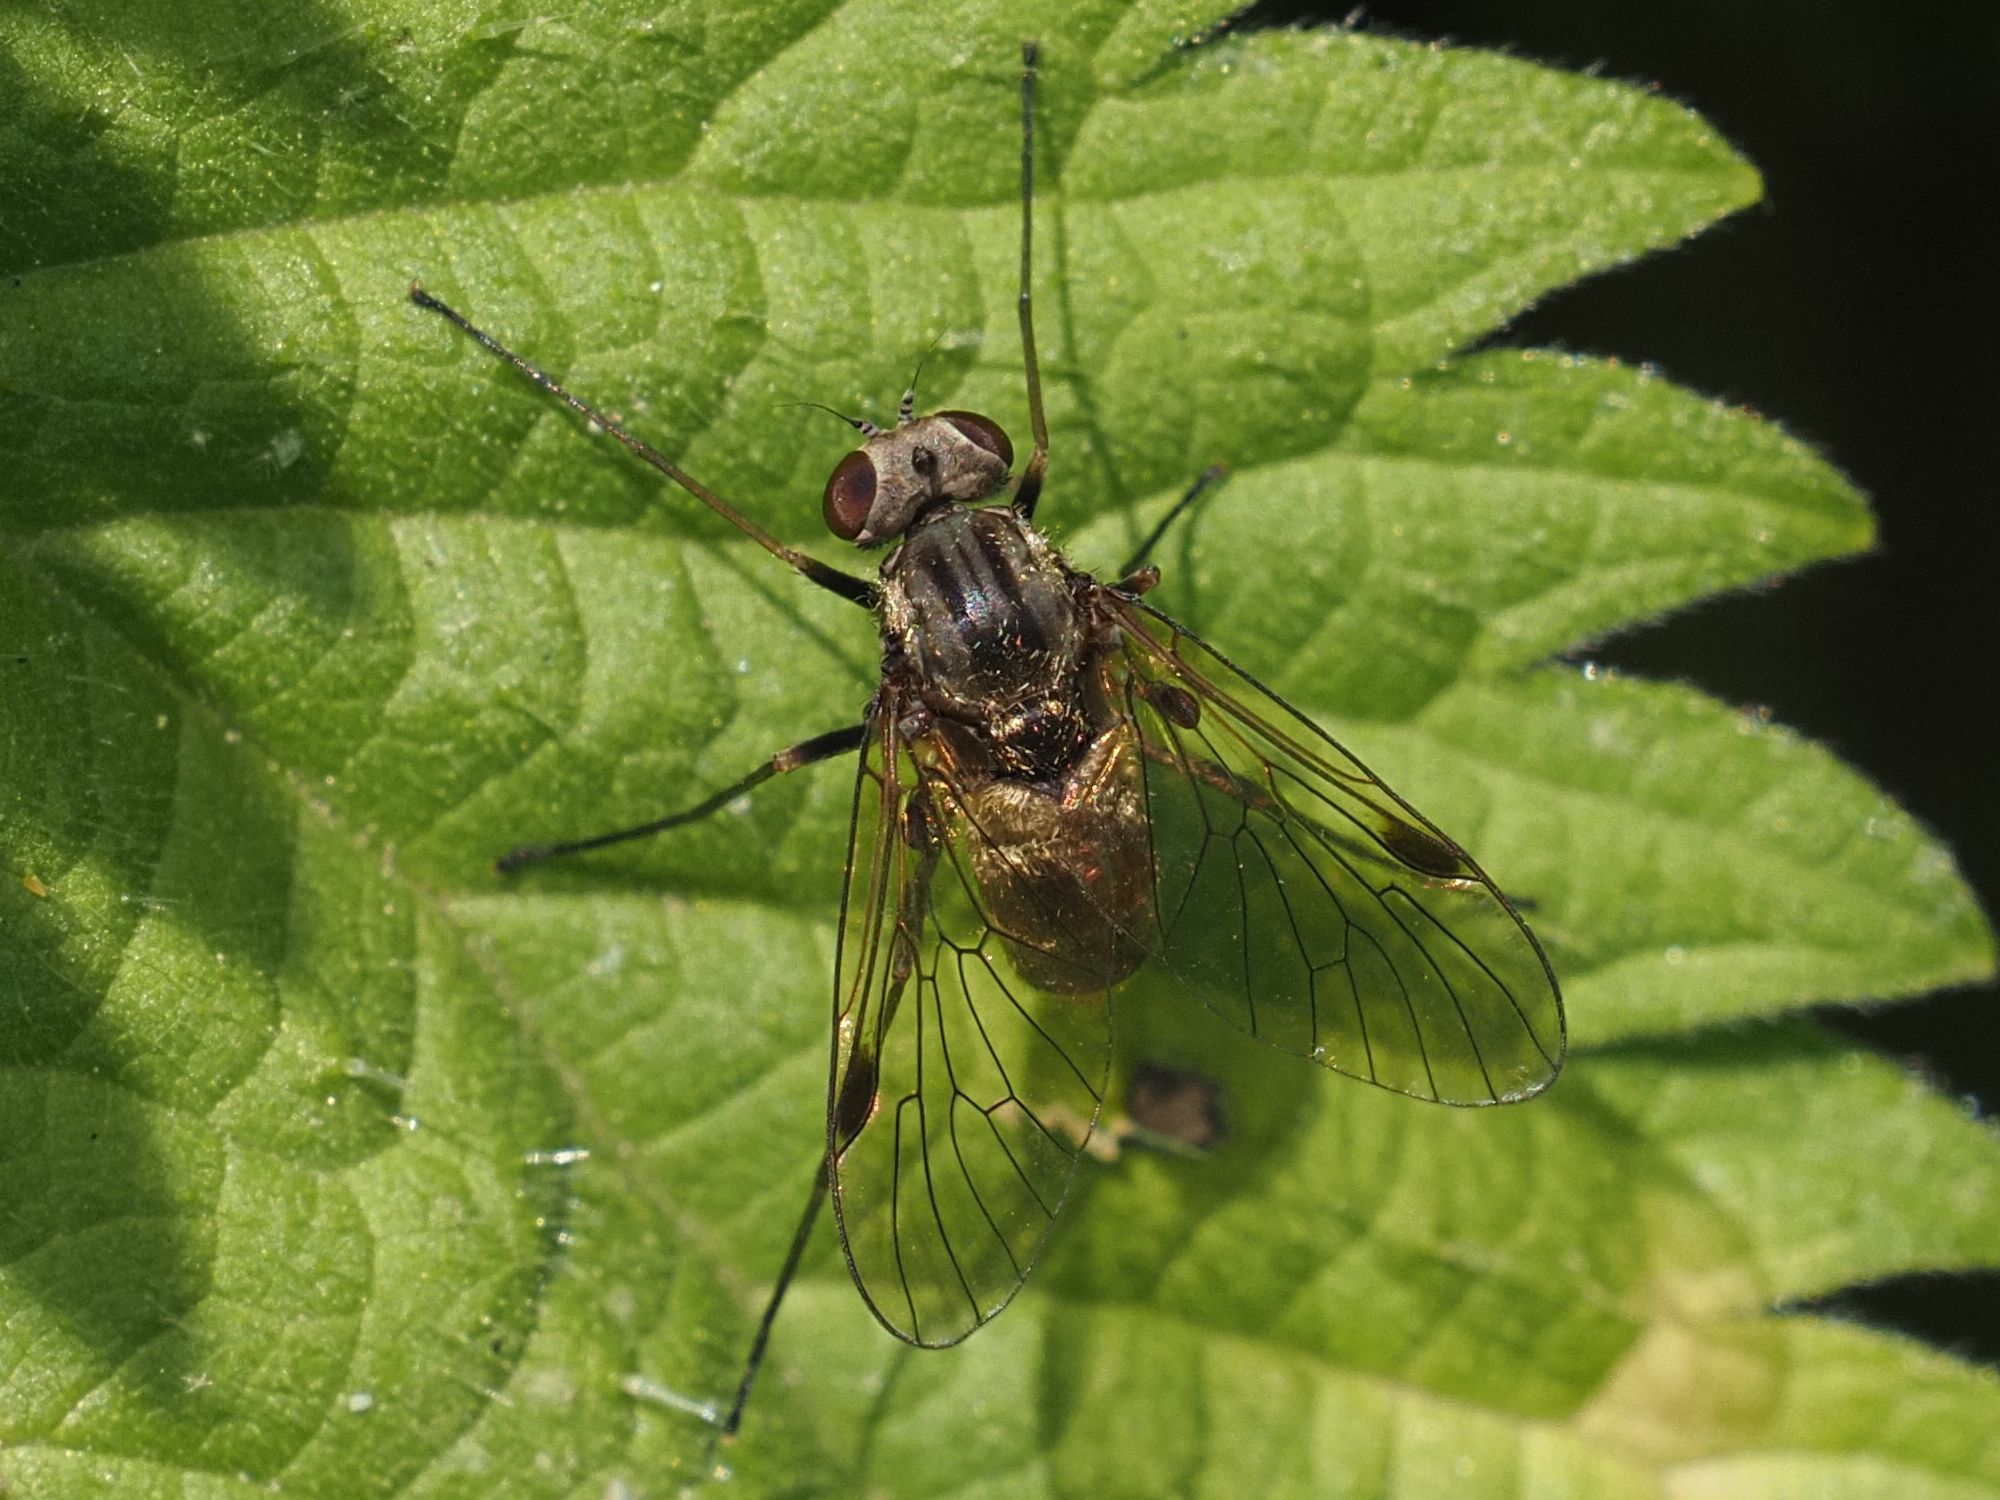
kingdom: Animalia
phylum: Arthropoda
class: Insecta
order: Diptera
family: Rhagionidae
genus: Chrysopilus
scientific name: Chrysopilus cristatus
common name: Black snipefly
